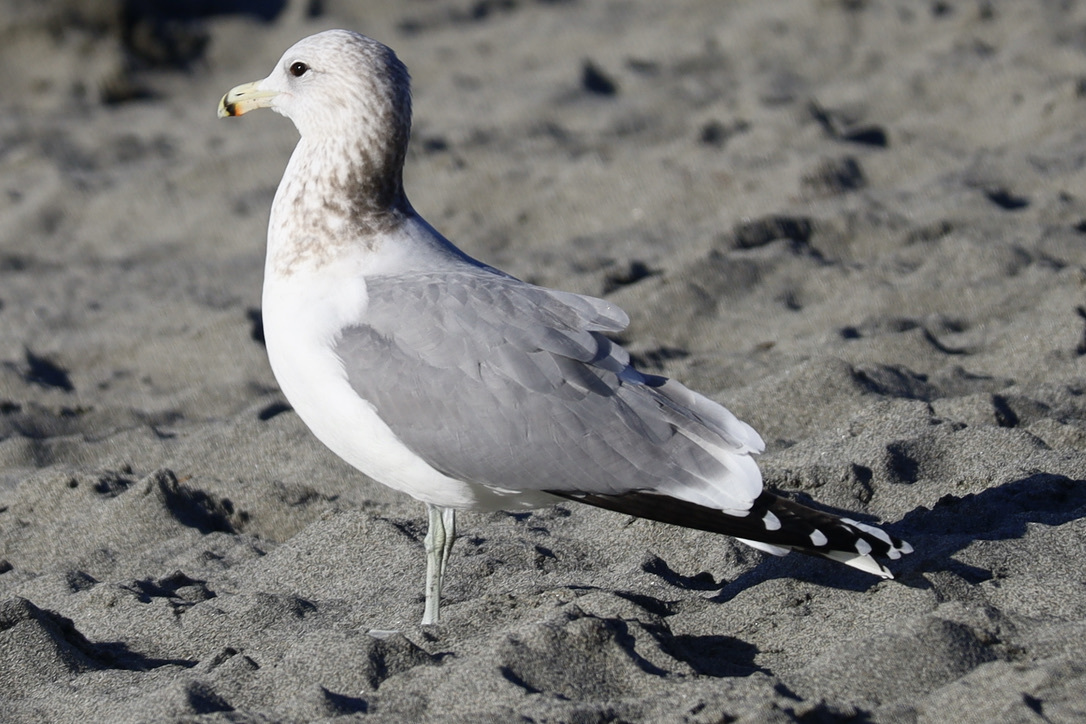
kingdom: Animalia
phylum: Chordata
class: Aves
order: Charadriiformes
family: Laridae
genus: Larus
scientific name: Larus californicus
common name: California gull
